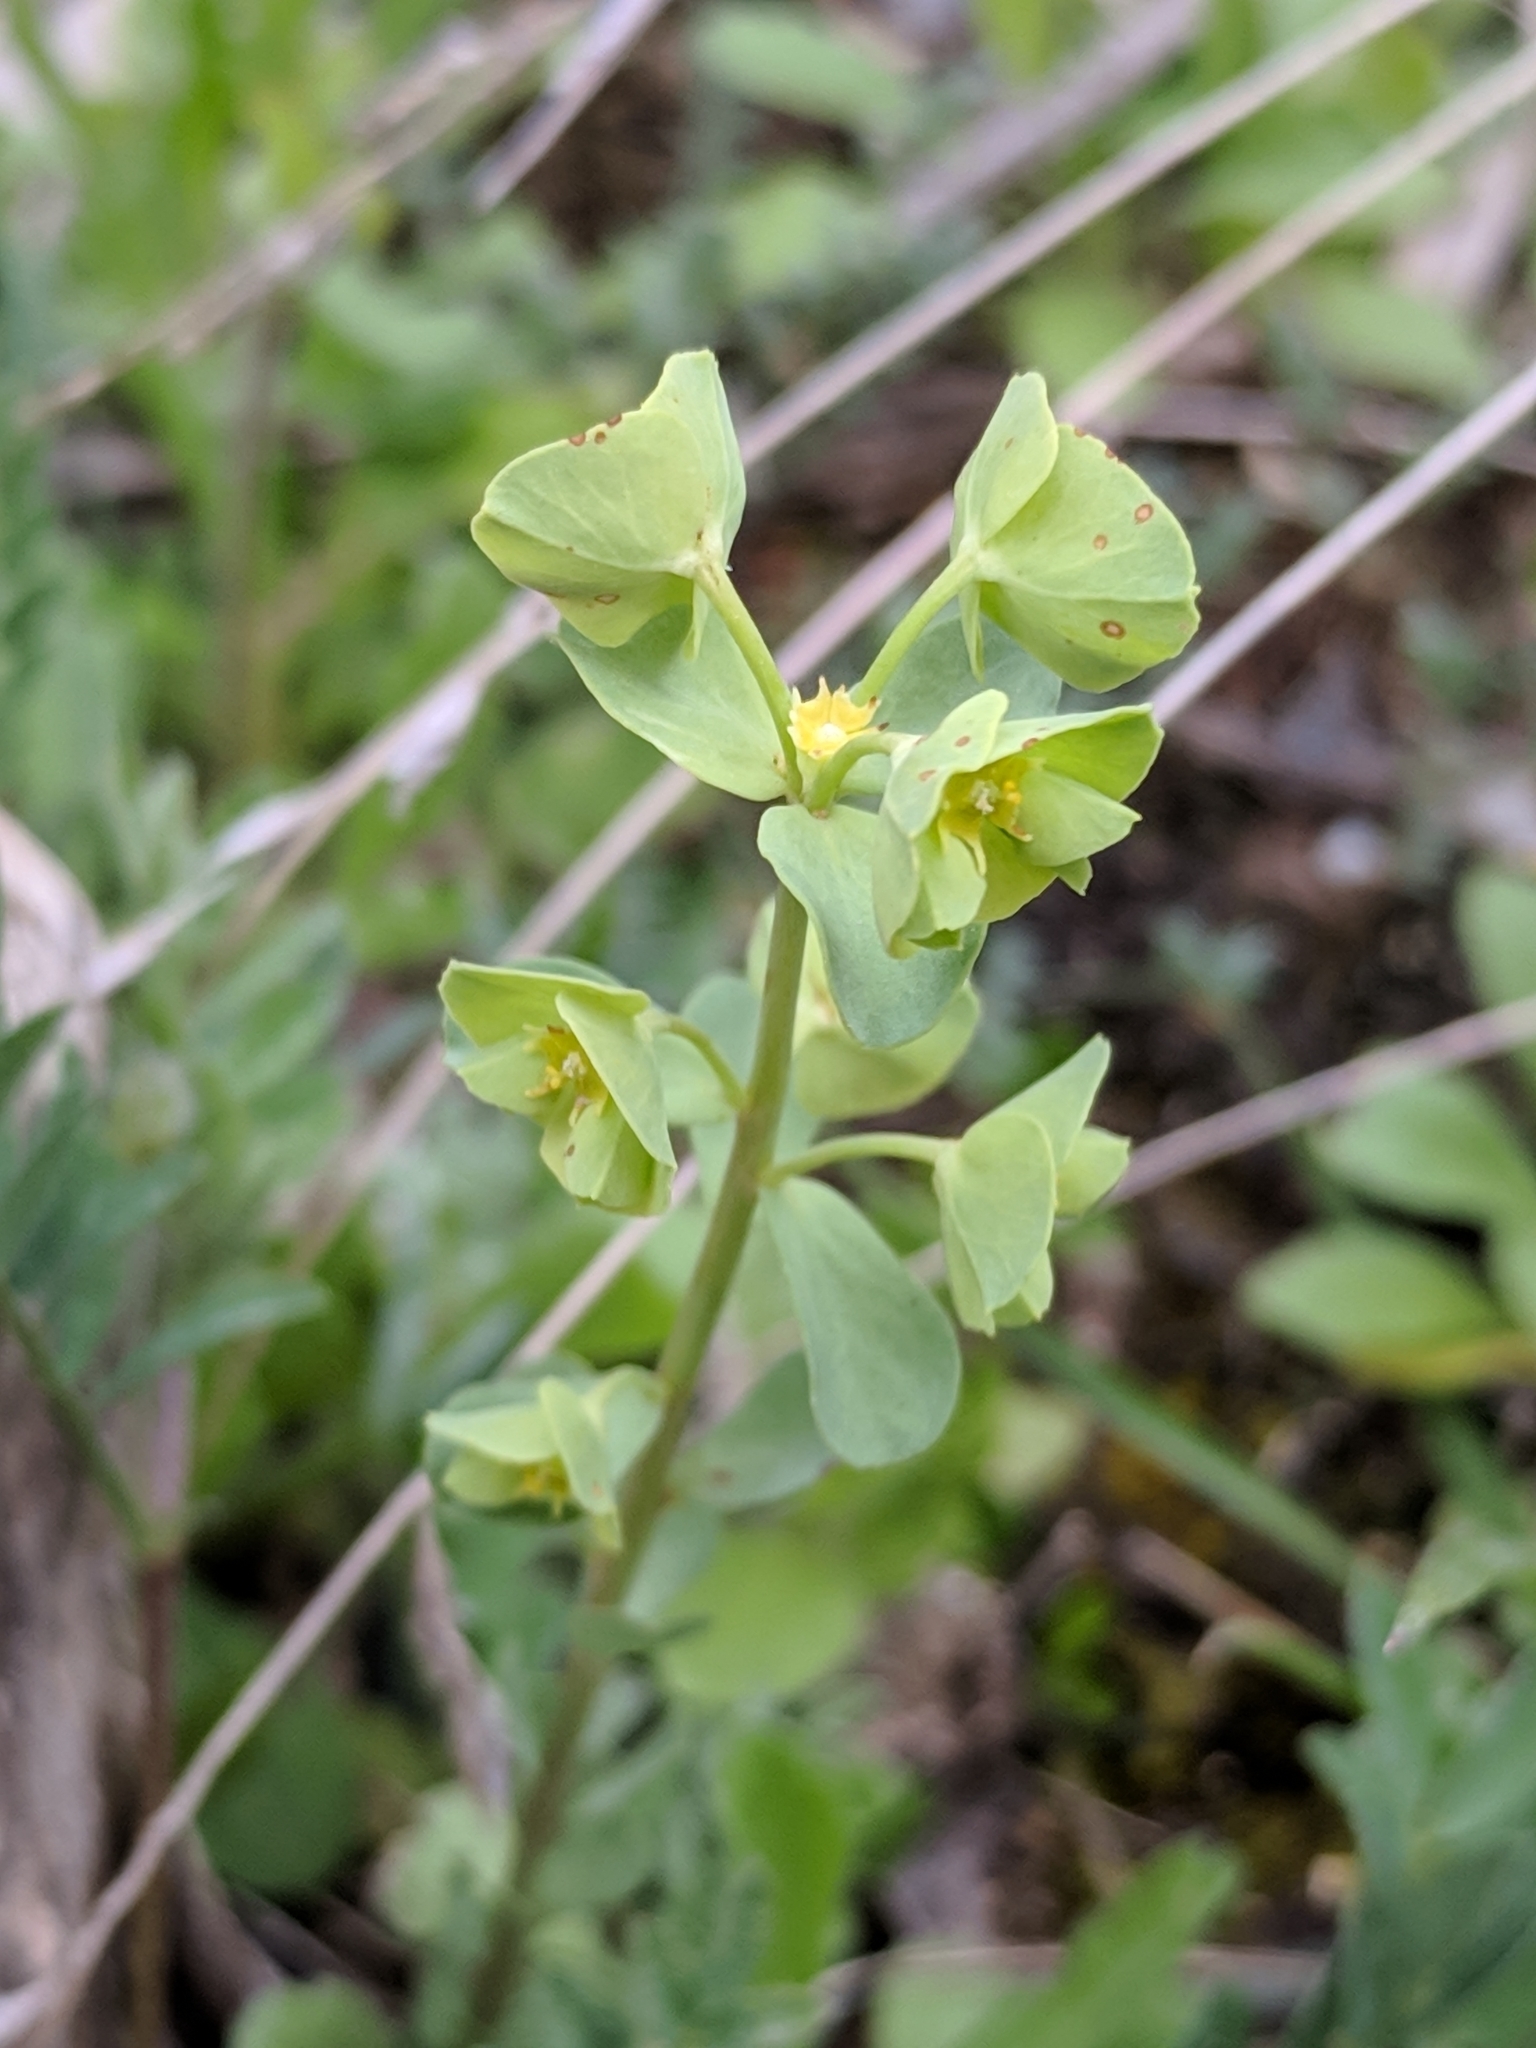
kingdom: Plantae
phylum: Tracheophyta
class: Magnoliopsida
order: Malpighiales
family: Euphorbiaceae
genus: Euphorbia
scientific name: Euphorbia longicruris
